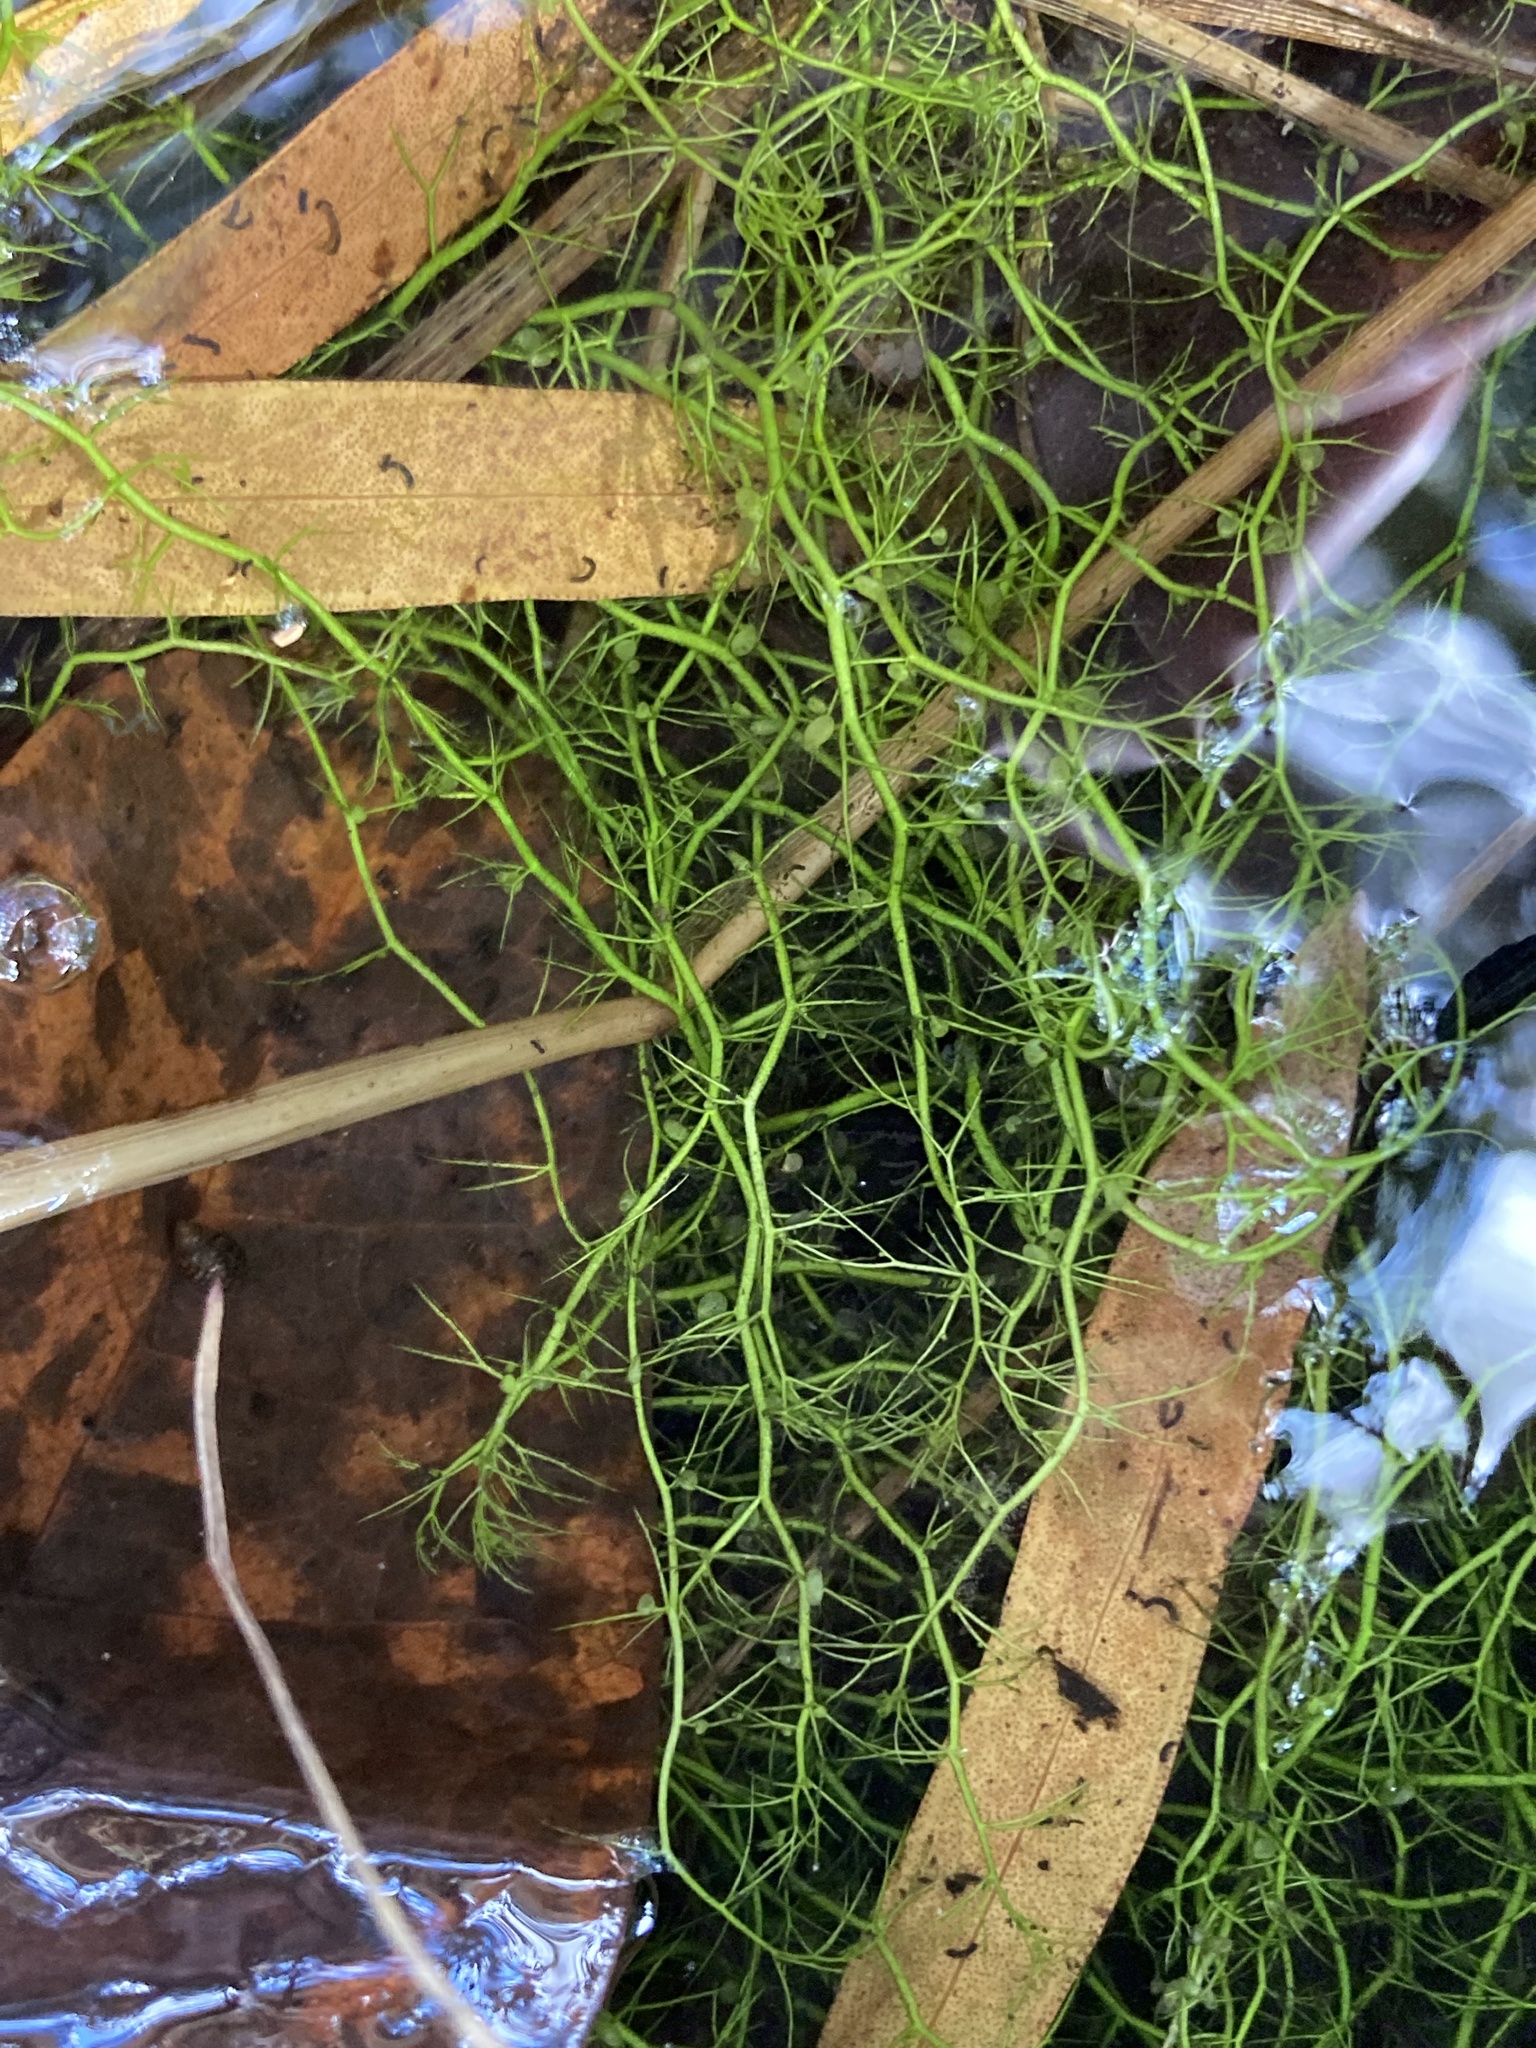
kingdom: Plantae
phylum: Tracheophyta
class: Magnoliopsida
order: Lamiales
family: Lentibulariaceae
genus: Utricularia
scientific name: Utricularia gibba
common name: Humped bladderwort
